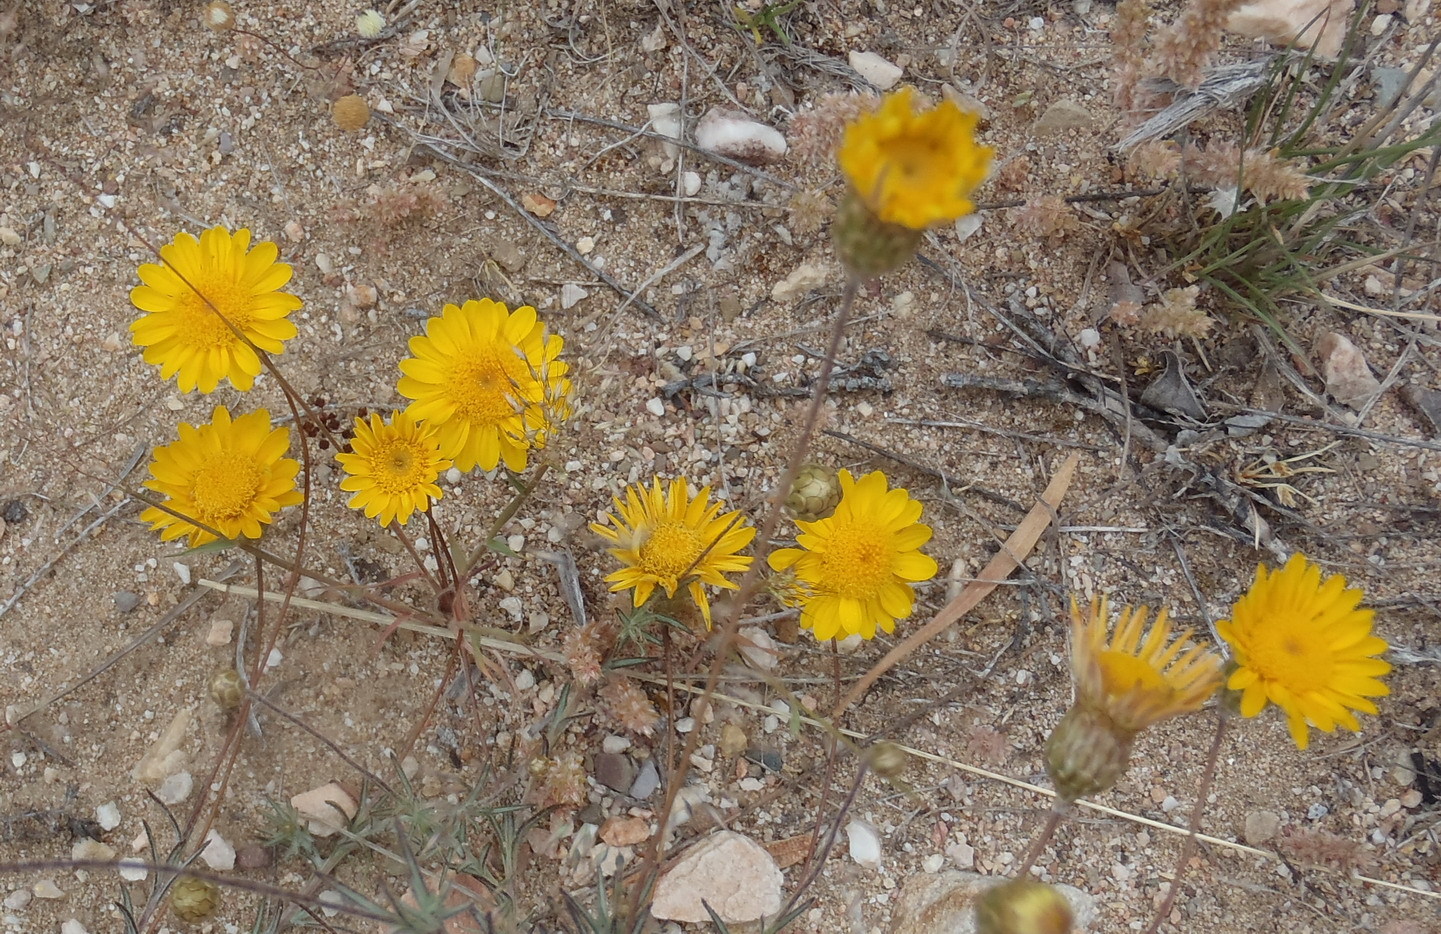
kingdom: Plantae
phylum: Tracheophyta
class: Magnoliopsida
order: Asterales
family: Asteraceae
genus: Leysera
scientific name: Leysera gnaphalodes
